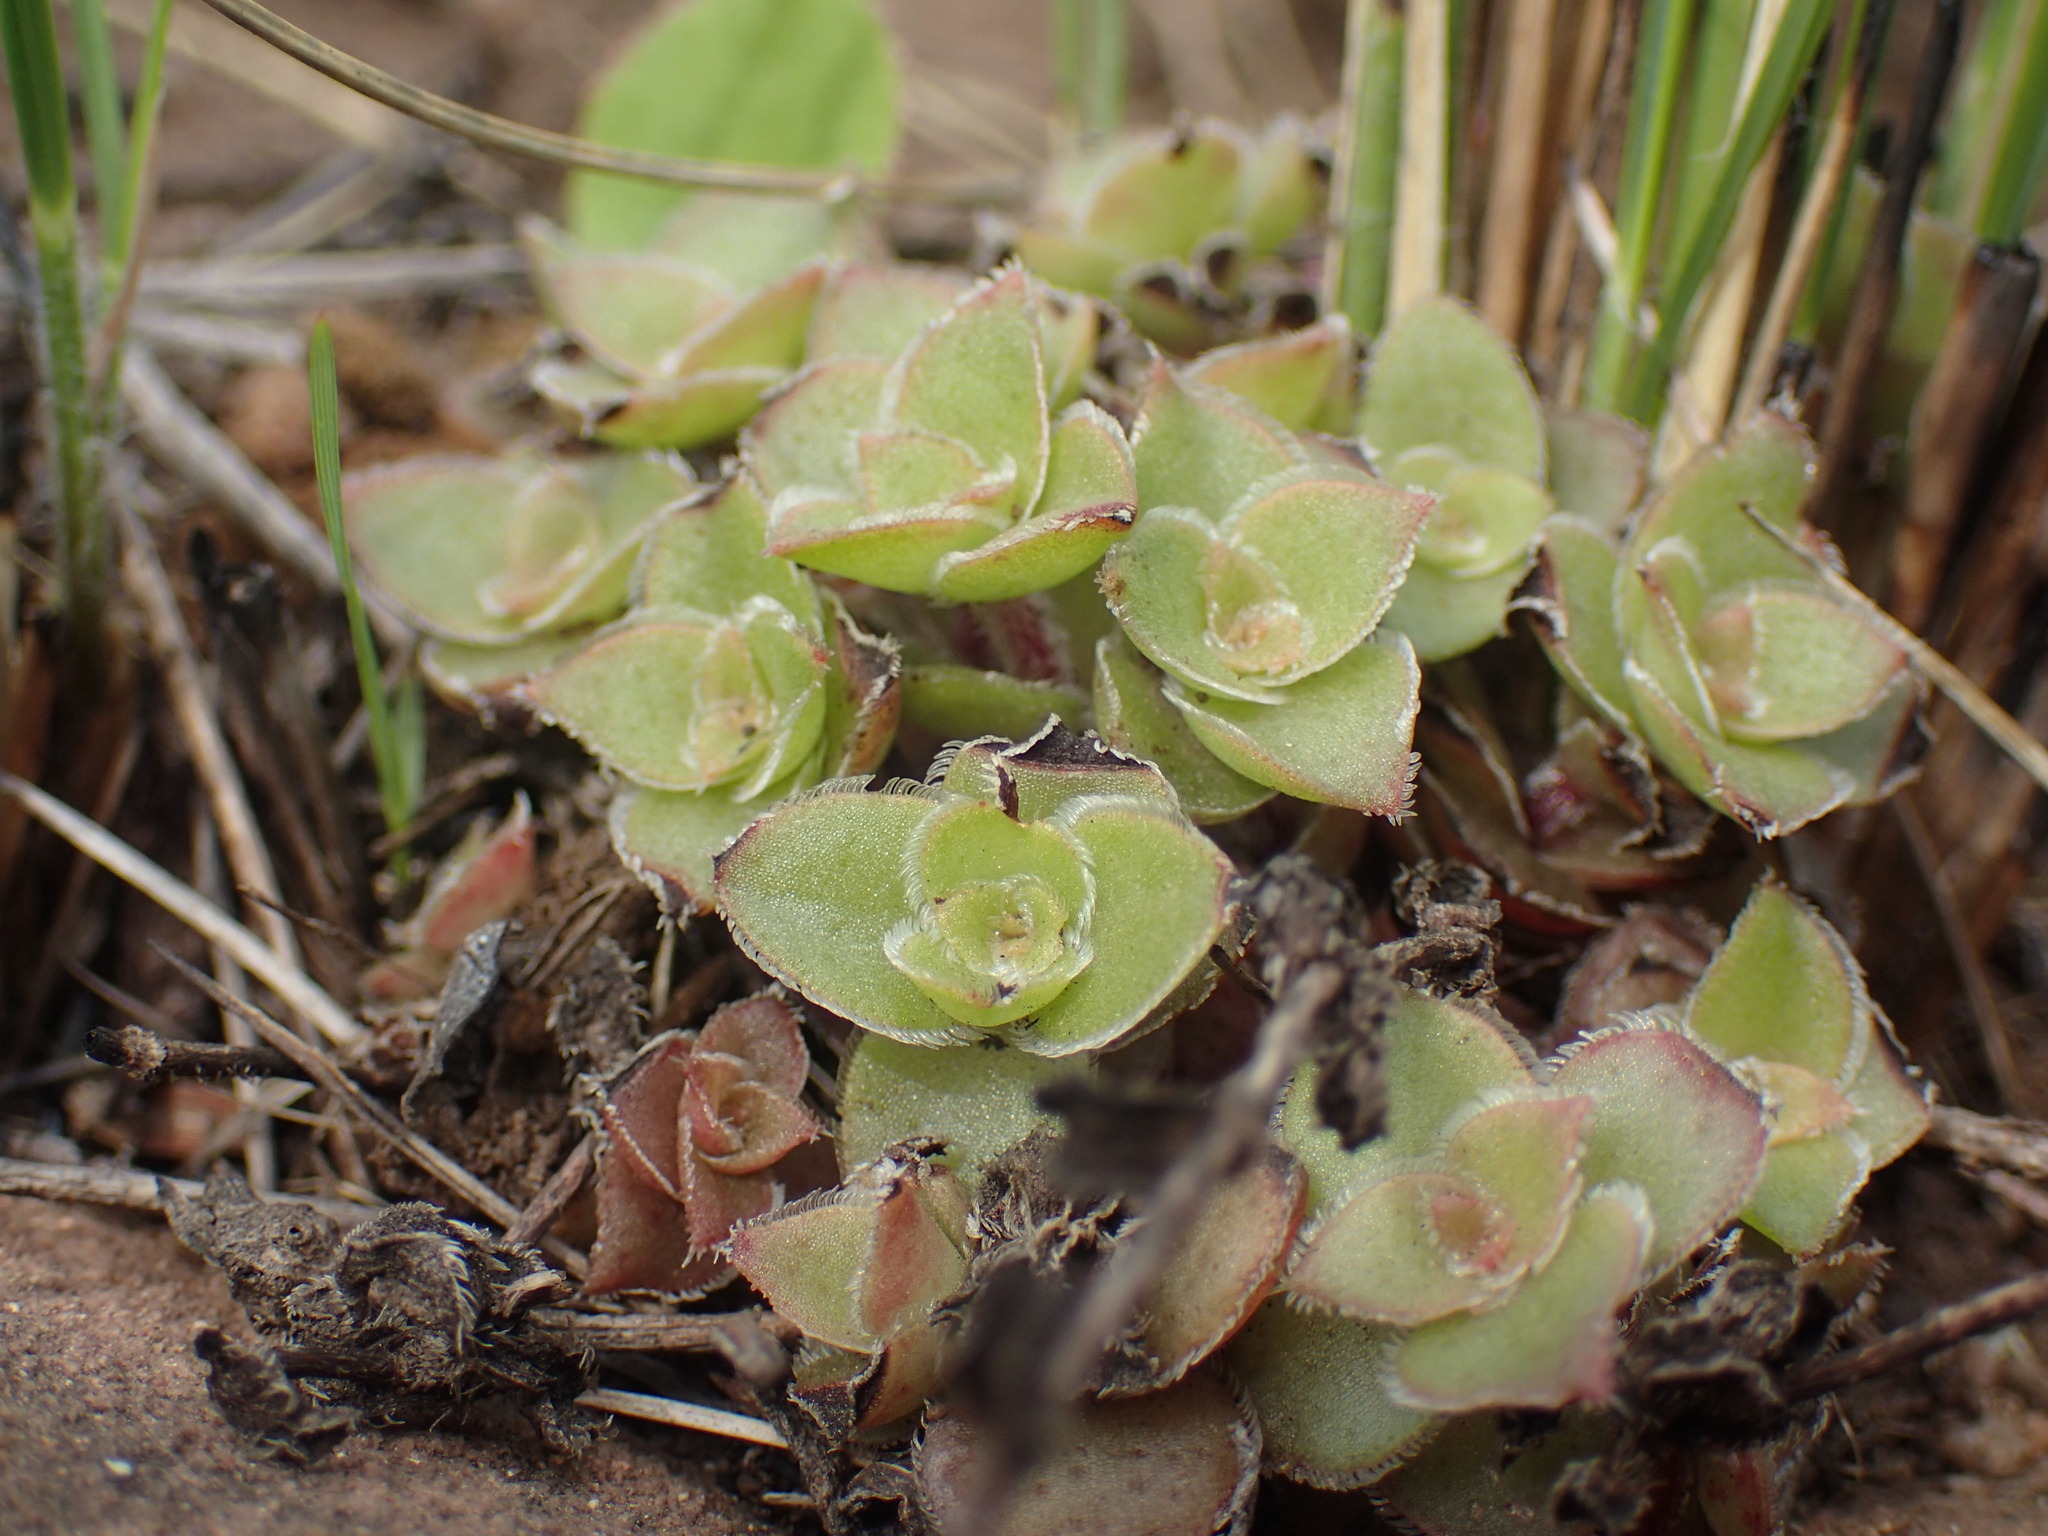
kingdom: Plantae
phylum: Tracheophyta
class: Magnoliopsida
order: Saxifragales
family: Crassulaceae
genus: Crassula
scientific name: Crassula obovata
